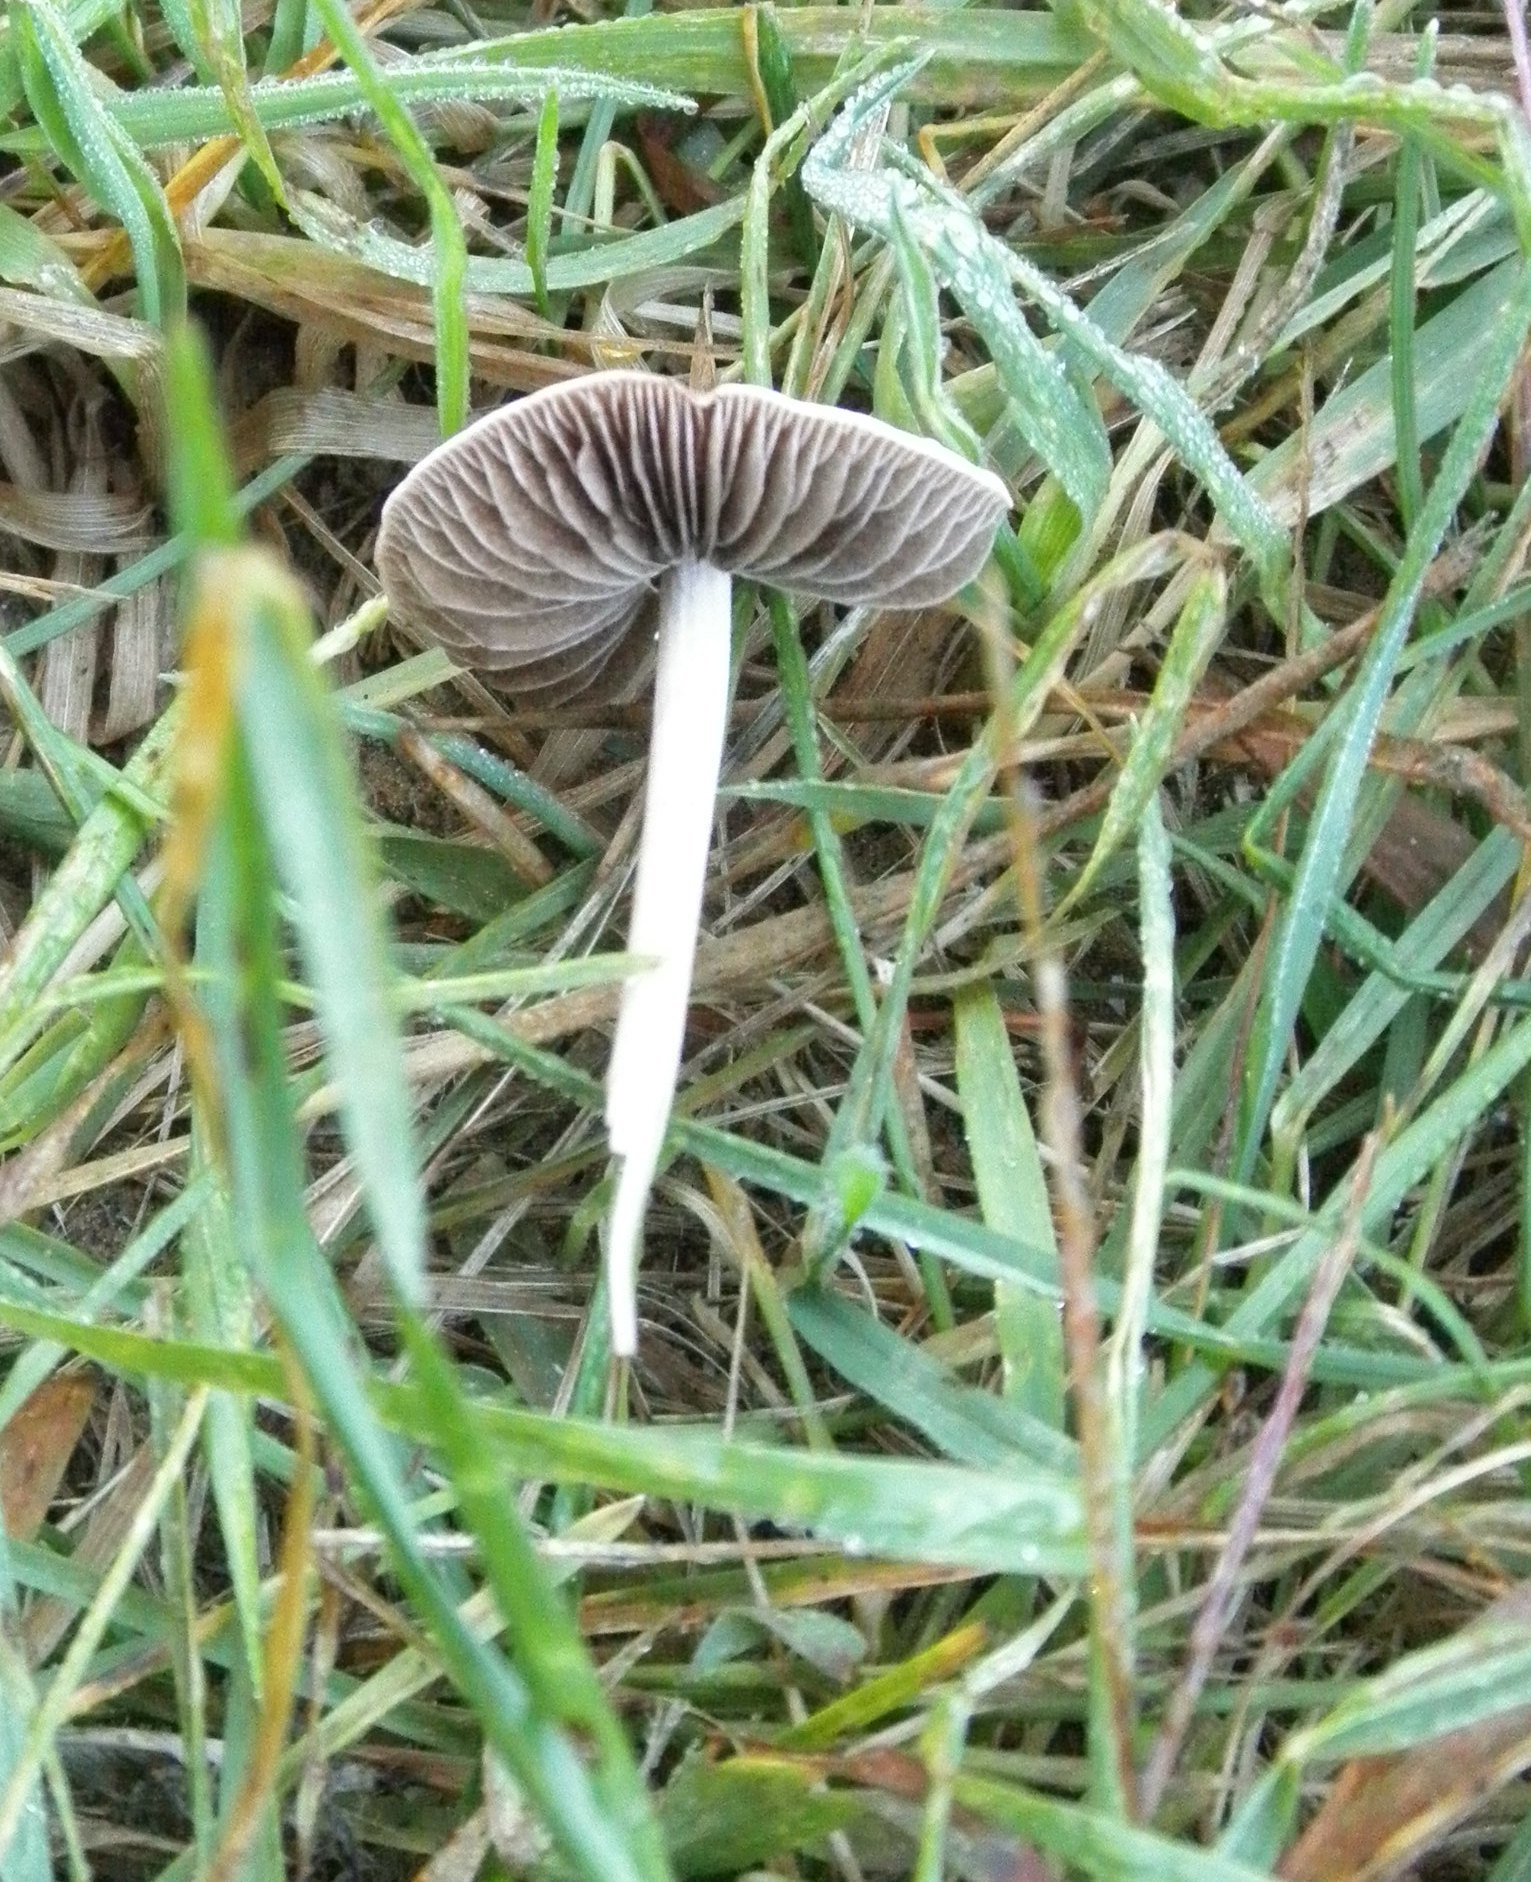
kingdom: Fungi
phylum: Basidiomycota
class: Agaricomycetes
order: Agaricales
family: Psathyrellaceae
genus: Candolleomyces
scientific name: Candolleomyces candolleanus
